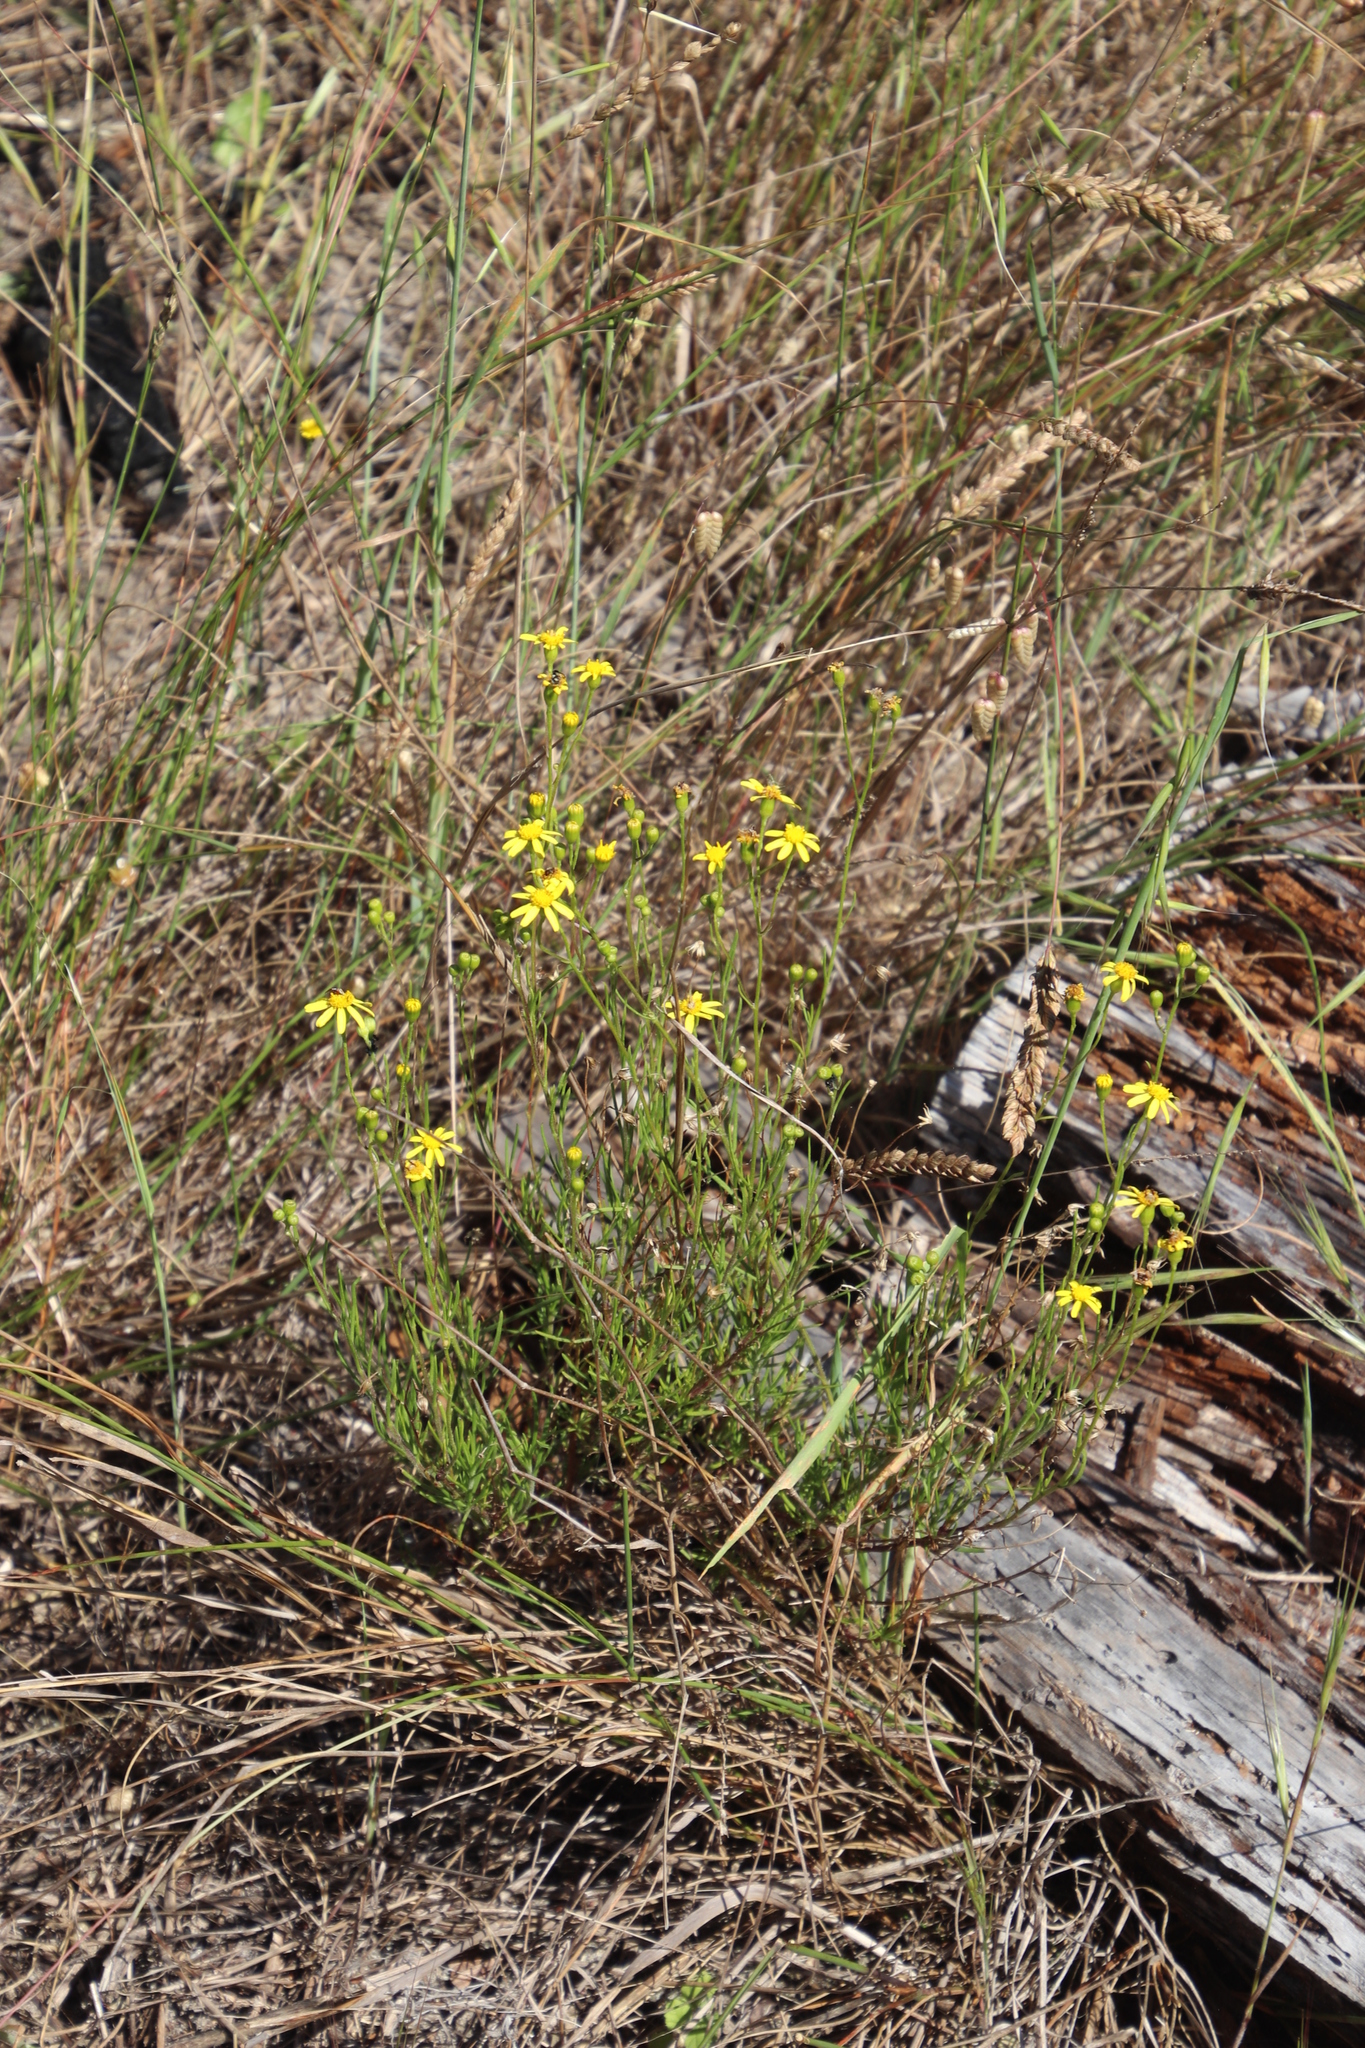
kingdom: Plantae
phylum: Tracheophyta
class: Magnoliopsida
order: Asterales
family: Asteraceae
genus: Senecio
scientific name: Senecio burchellii
